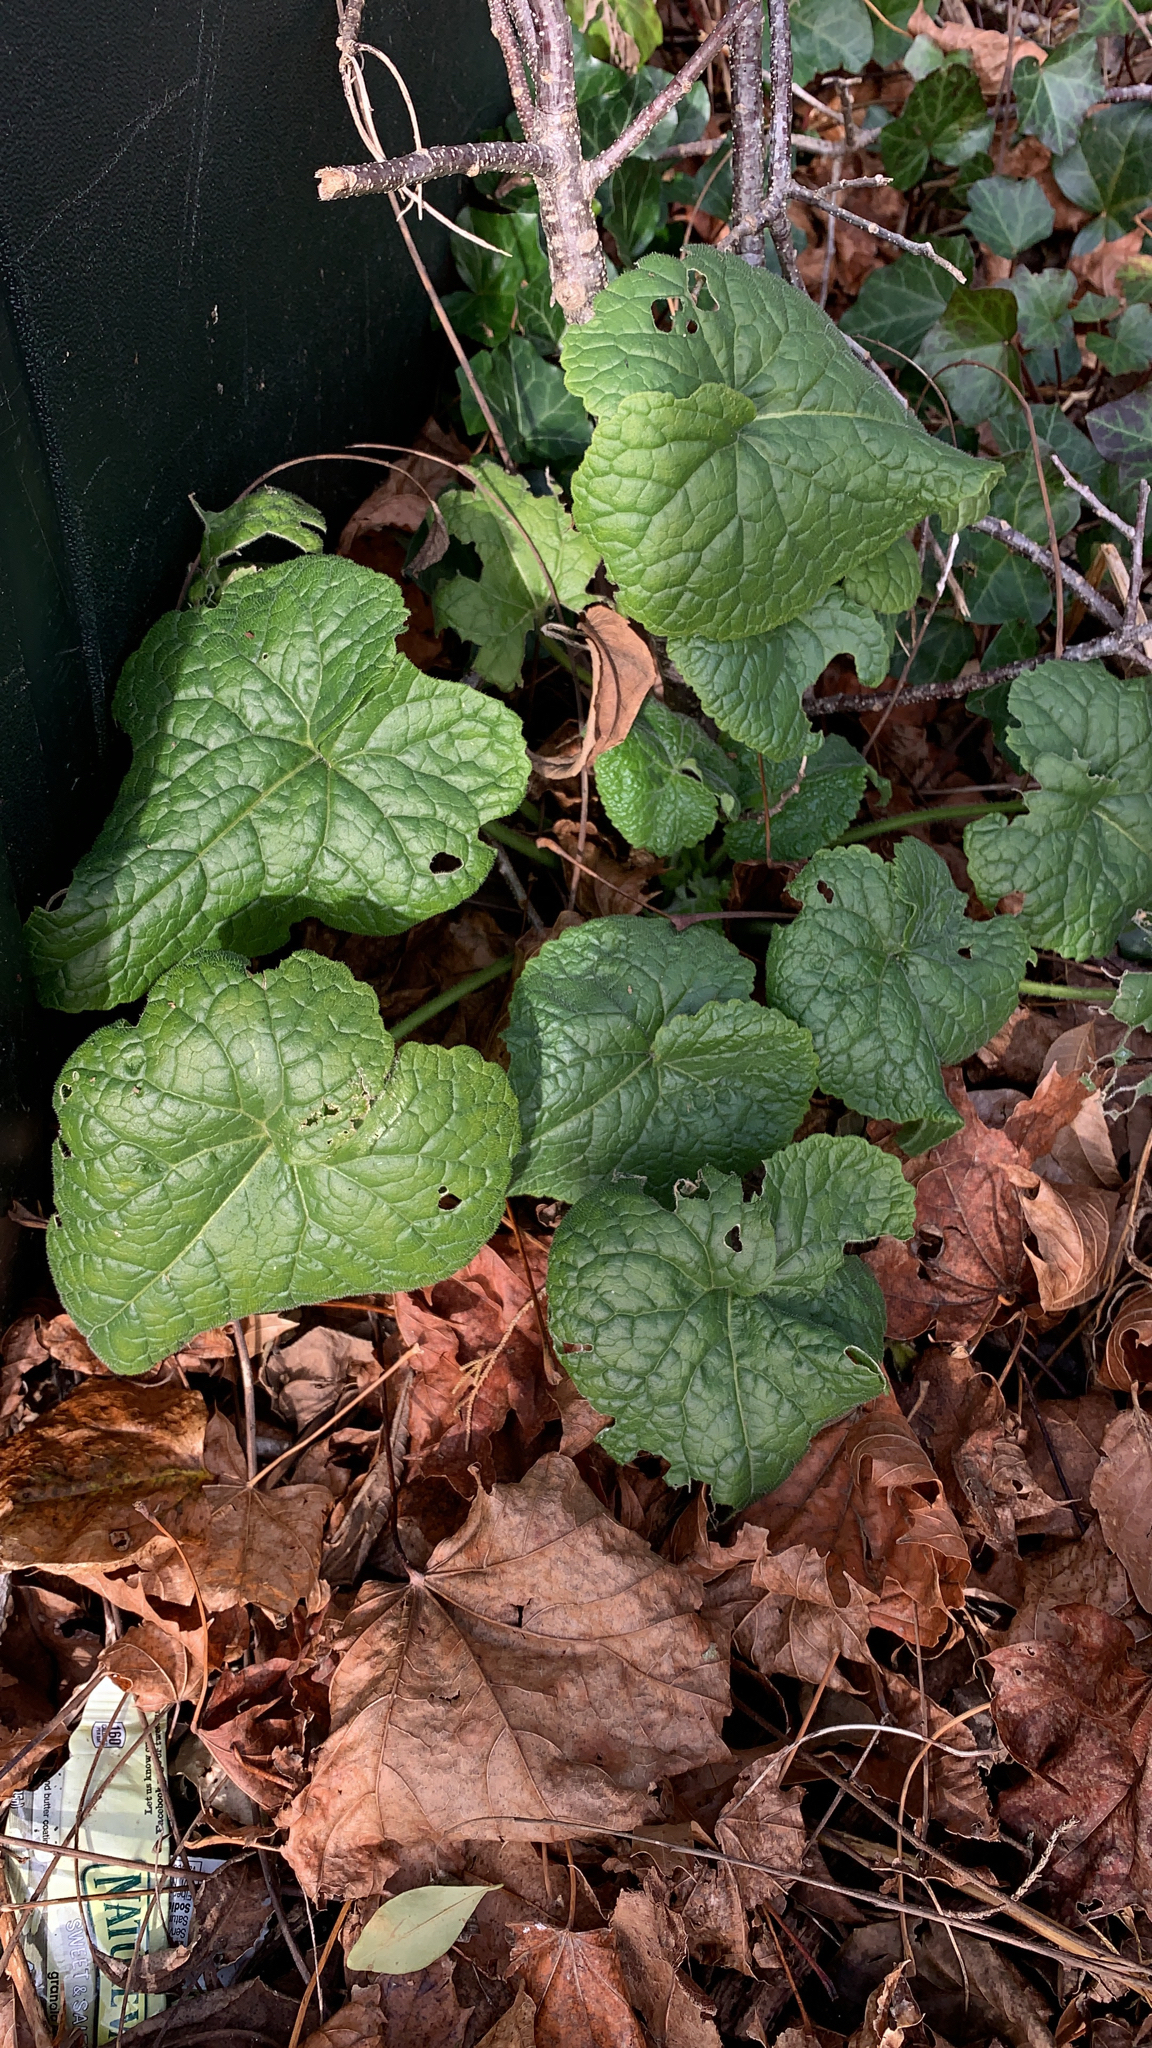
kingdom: Plantae
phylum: Tracheophyta
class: Magnoliopsida
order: Brassicales
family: Brassicaceae
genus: Lunaria
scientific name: Lunaria annua
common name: Honesty
